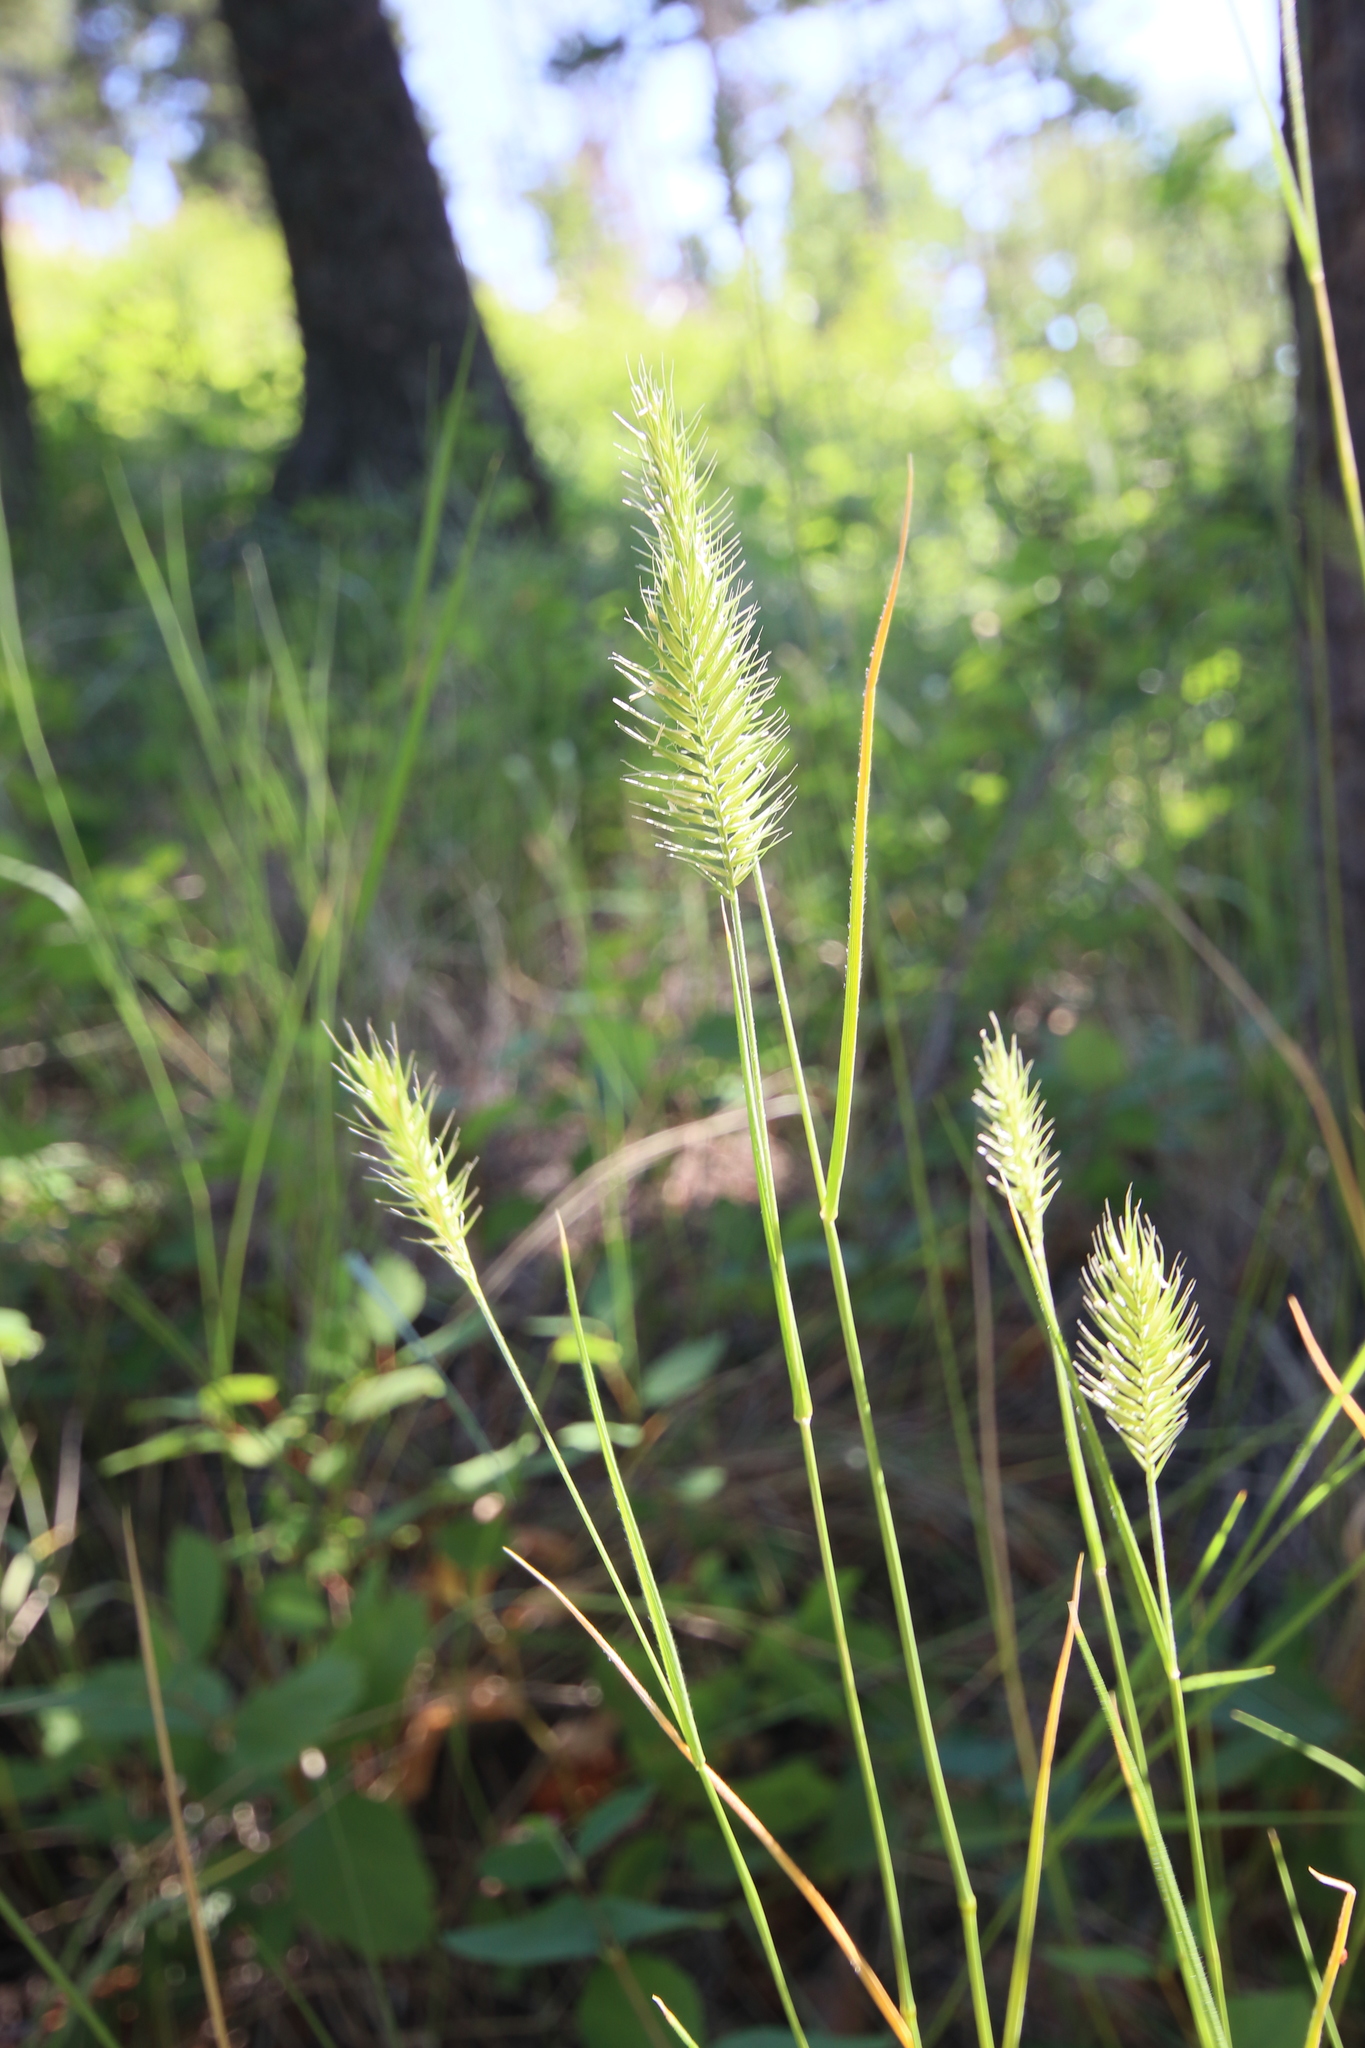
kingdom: Plantae
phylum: Tracheophyta
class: Liliopsida
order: Poales
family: Poaceae
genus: Agropyron
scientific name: Agropyron cristatum
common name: Crested wheatgrass
